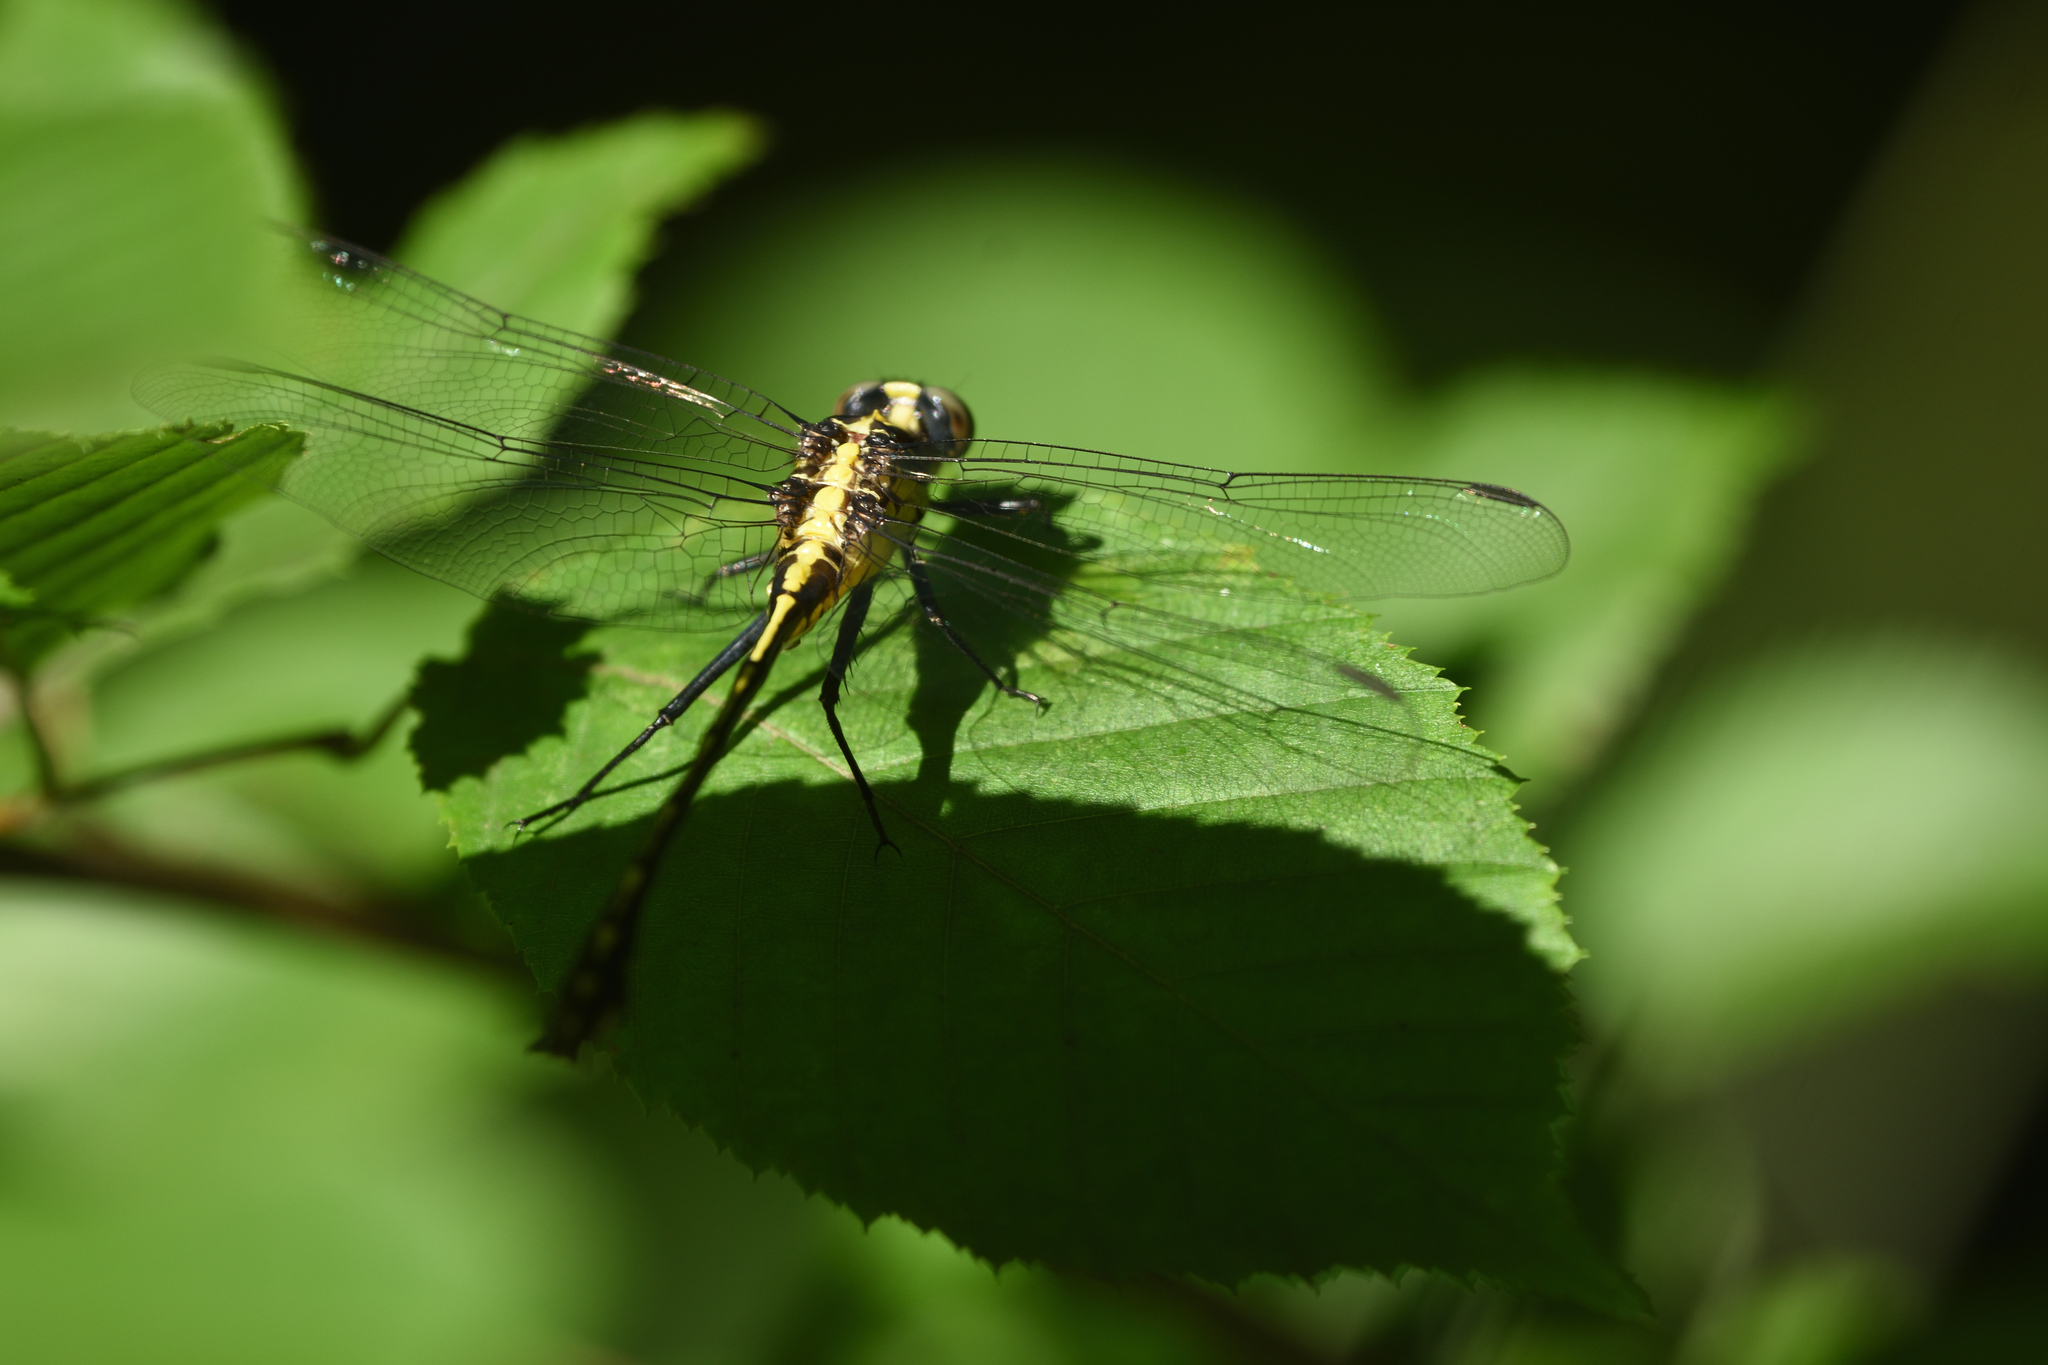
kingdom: Animalia
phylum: Arthropoda
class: Insecta
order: Odonata
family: Gomphidae
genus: Dromogomphus
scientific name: Dromogomphus spinosus
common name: Black-shouldered spinyleg
